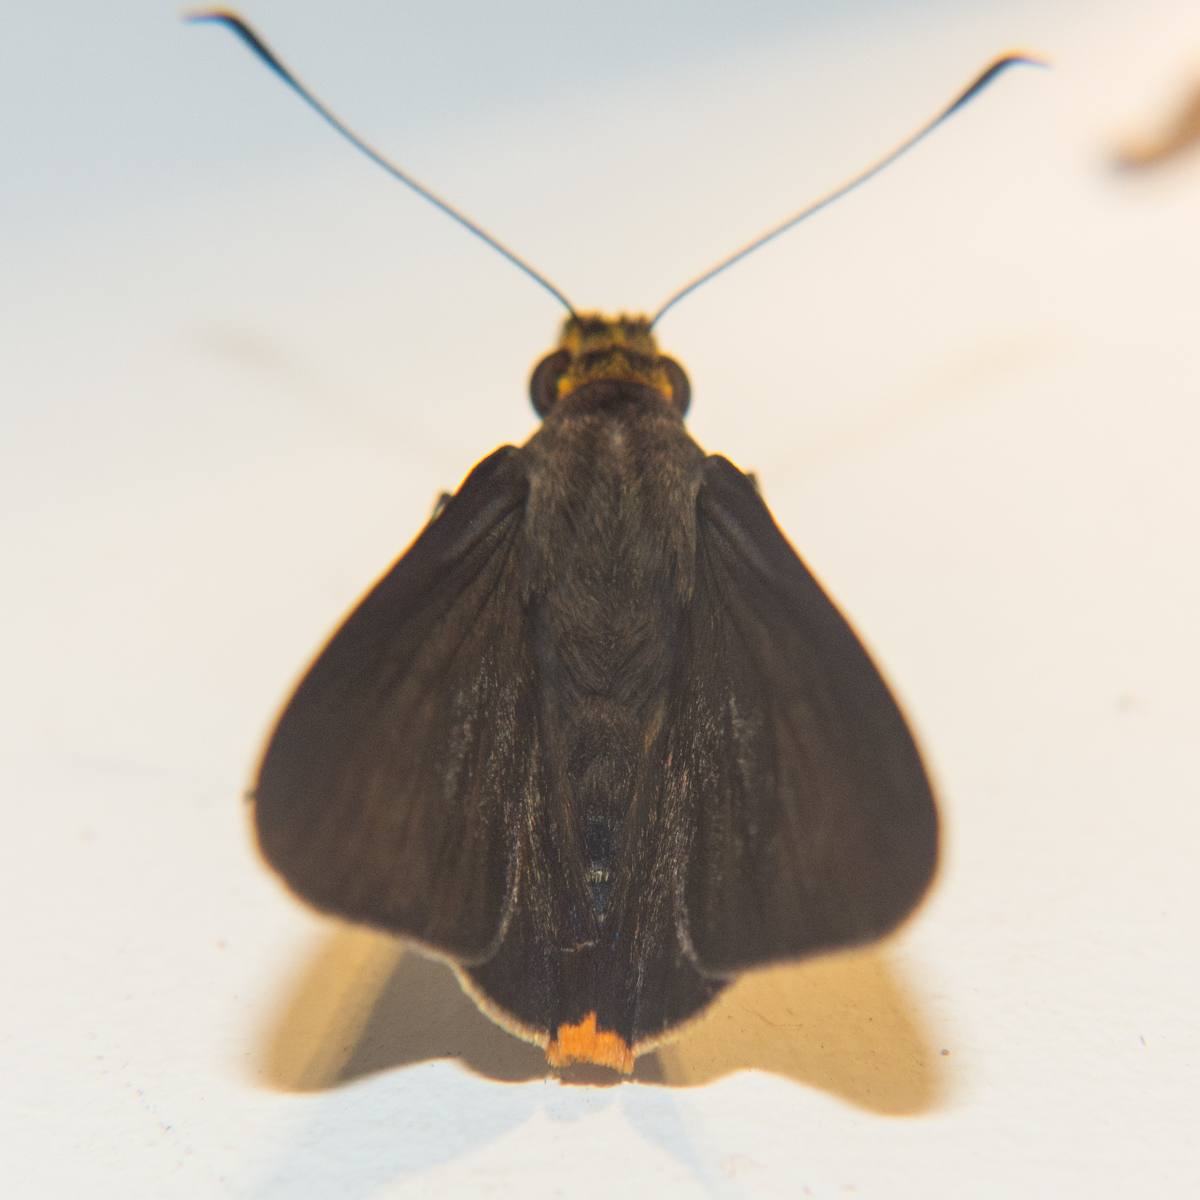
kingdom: Animalia
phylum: Arthropoda
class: Insecta
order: Lepidoptera
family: Hesperiidae
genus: Pirdana
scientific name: Pirdana hyela
